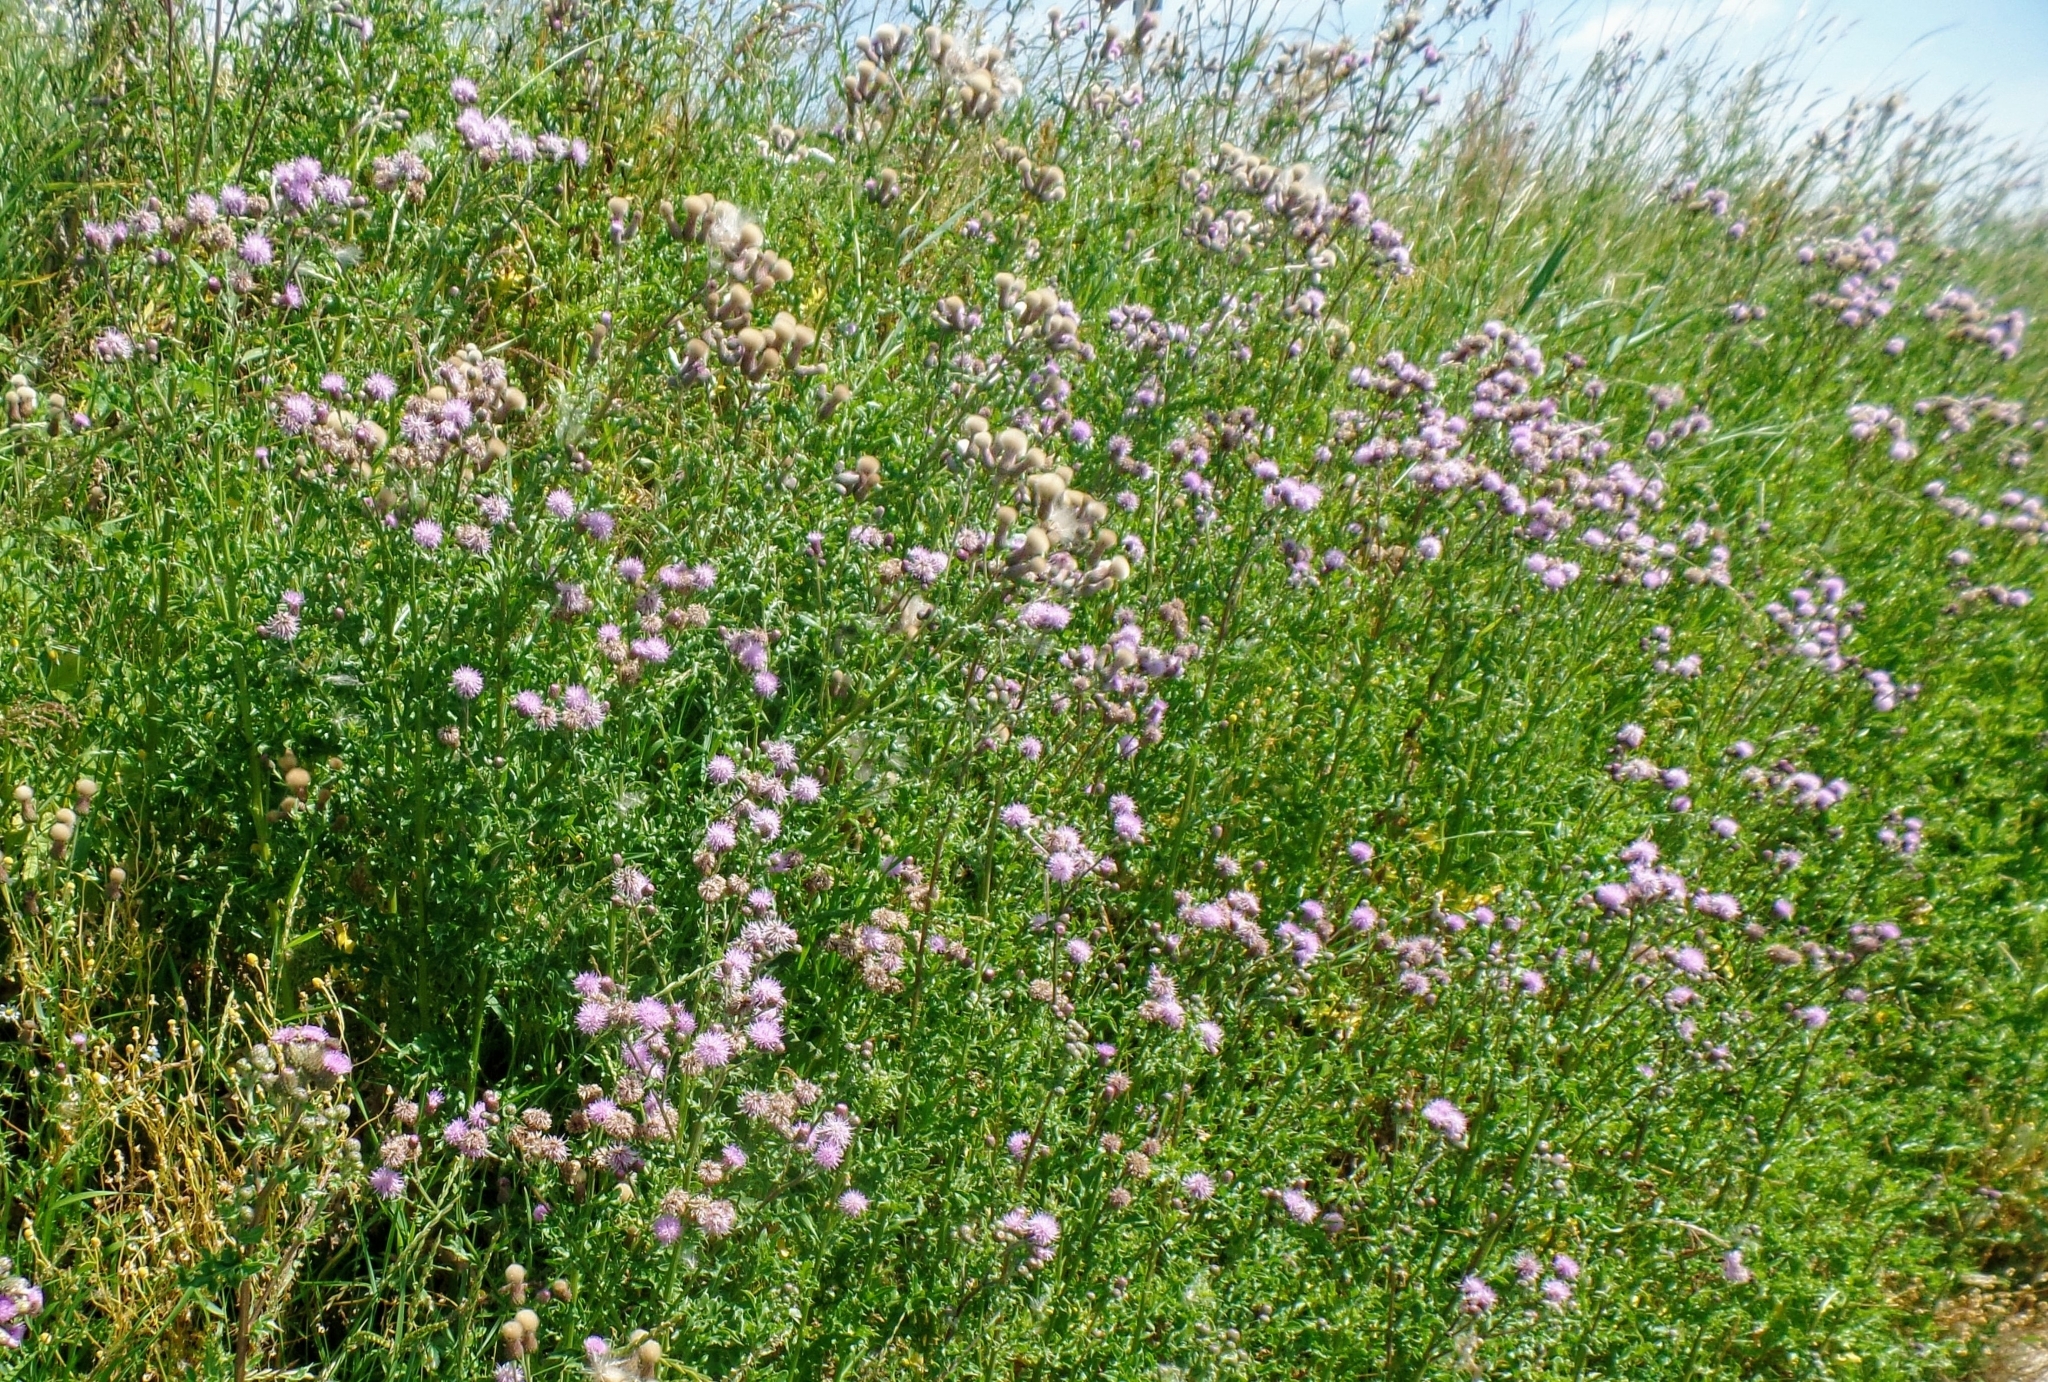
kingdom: Plantae
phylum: Tracheophyta
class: Magnoliopsida
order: Asterales
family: Asteraceae
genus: Cirsium
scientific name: Cirsium arvense
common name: Creeping thistle
